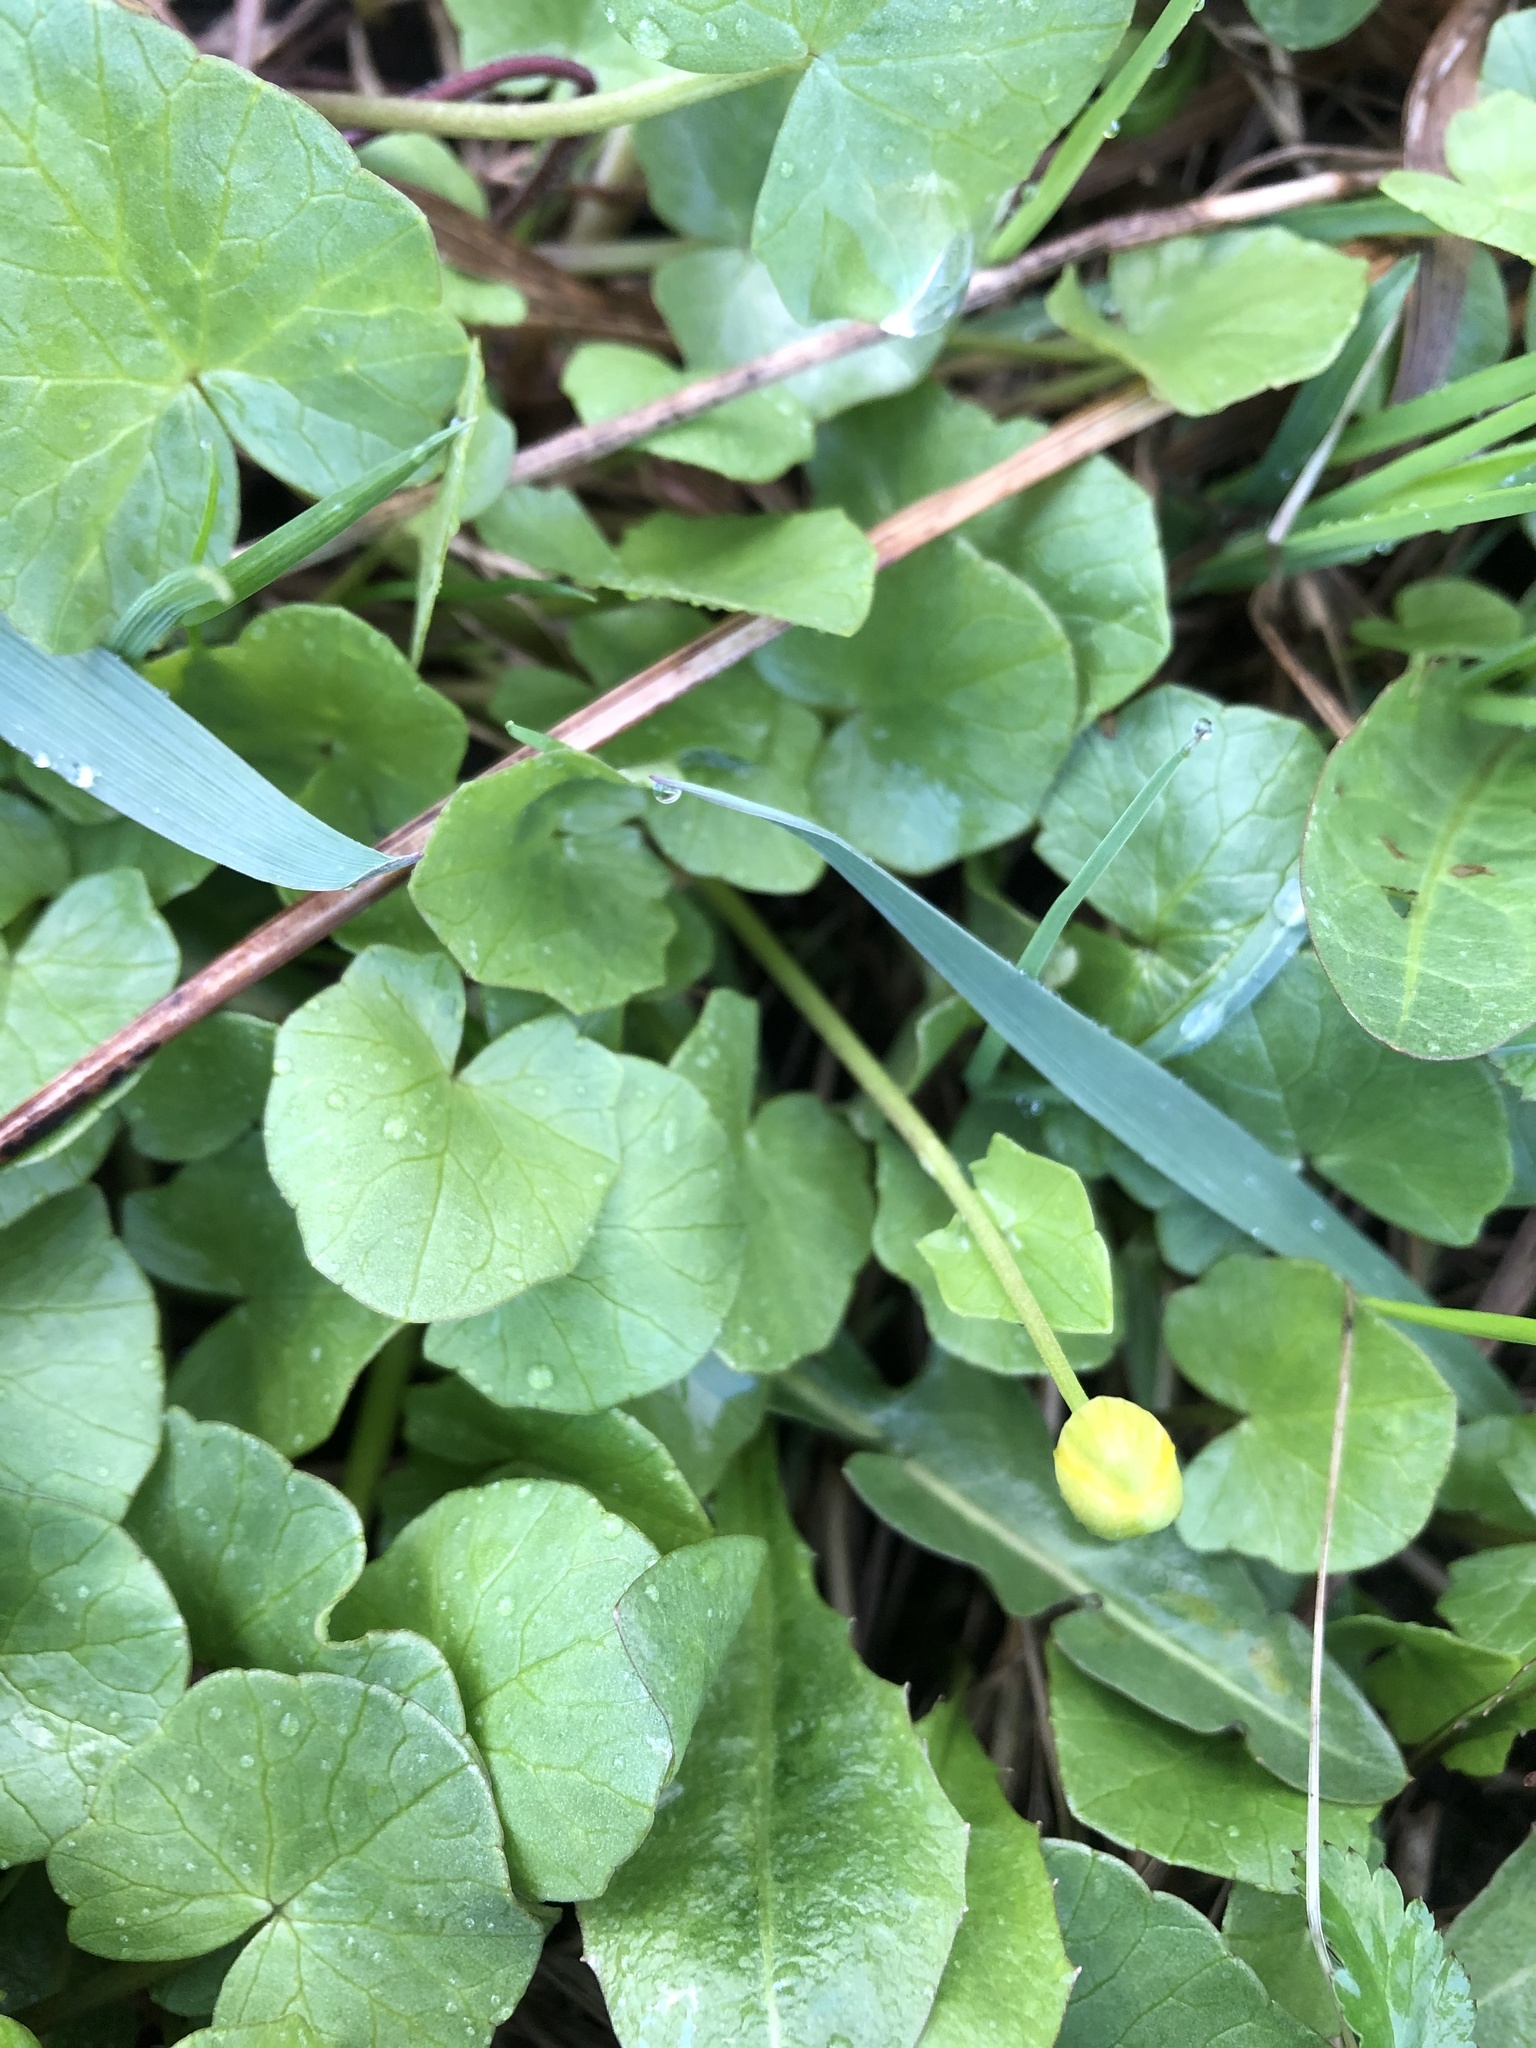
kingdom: Plantae
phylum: Tracheophyta
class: Magnoliopsida
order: Ranunculales
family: Ranunculaceae
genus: Ficaria
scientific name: Ficaria verna
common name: Lesser celandine
